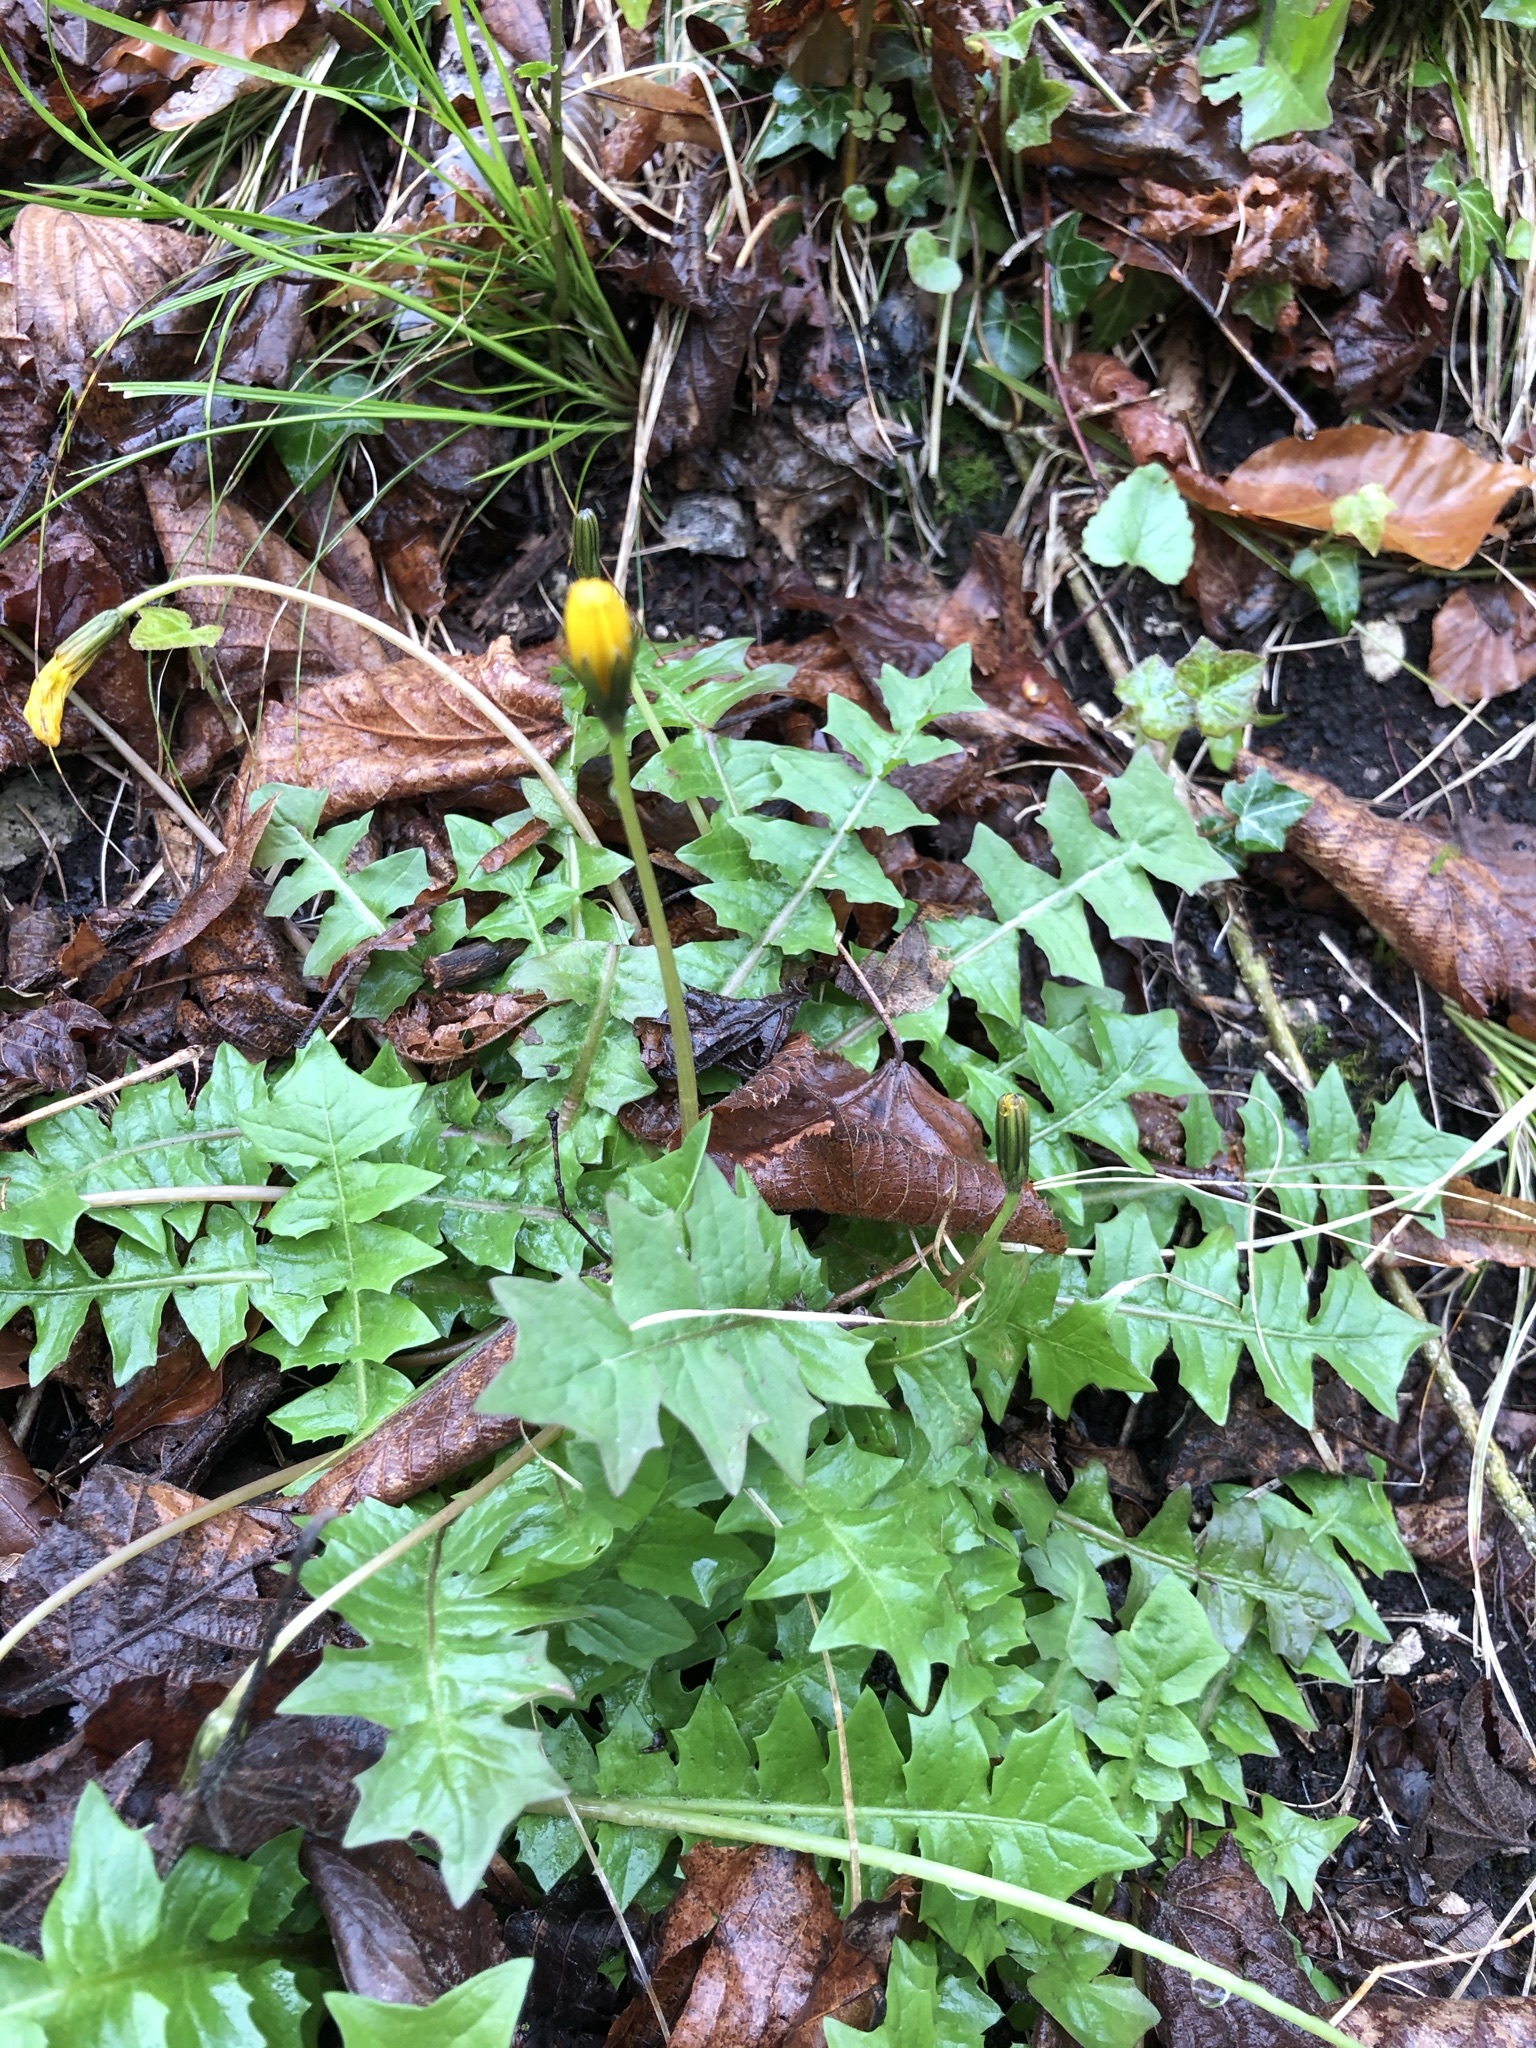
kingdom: Plantae
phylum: Tracheophyta
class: Magnoliopsida
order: Asterales
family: Asteraceae
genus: Aposeris
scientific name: Aposeris foetida
